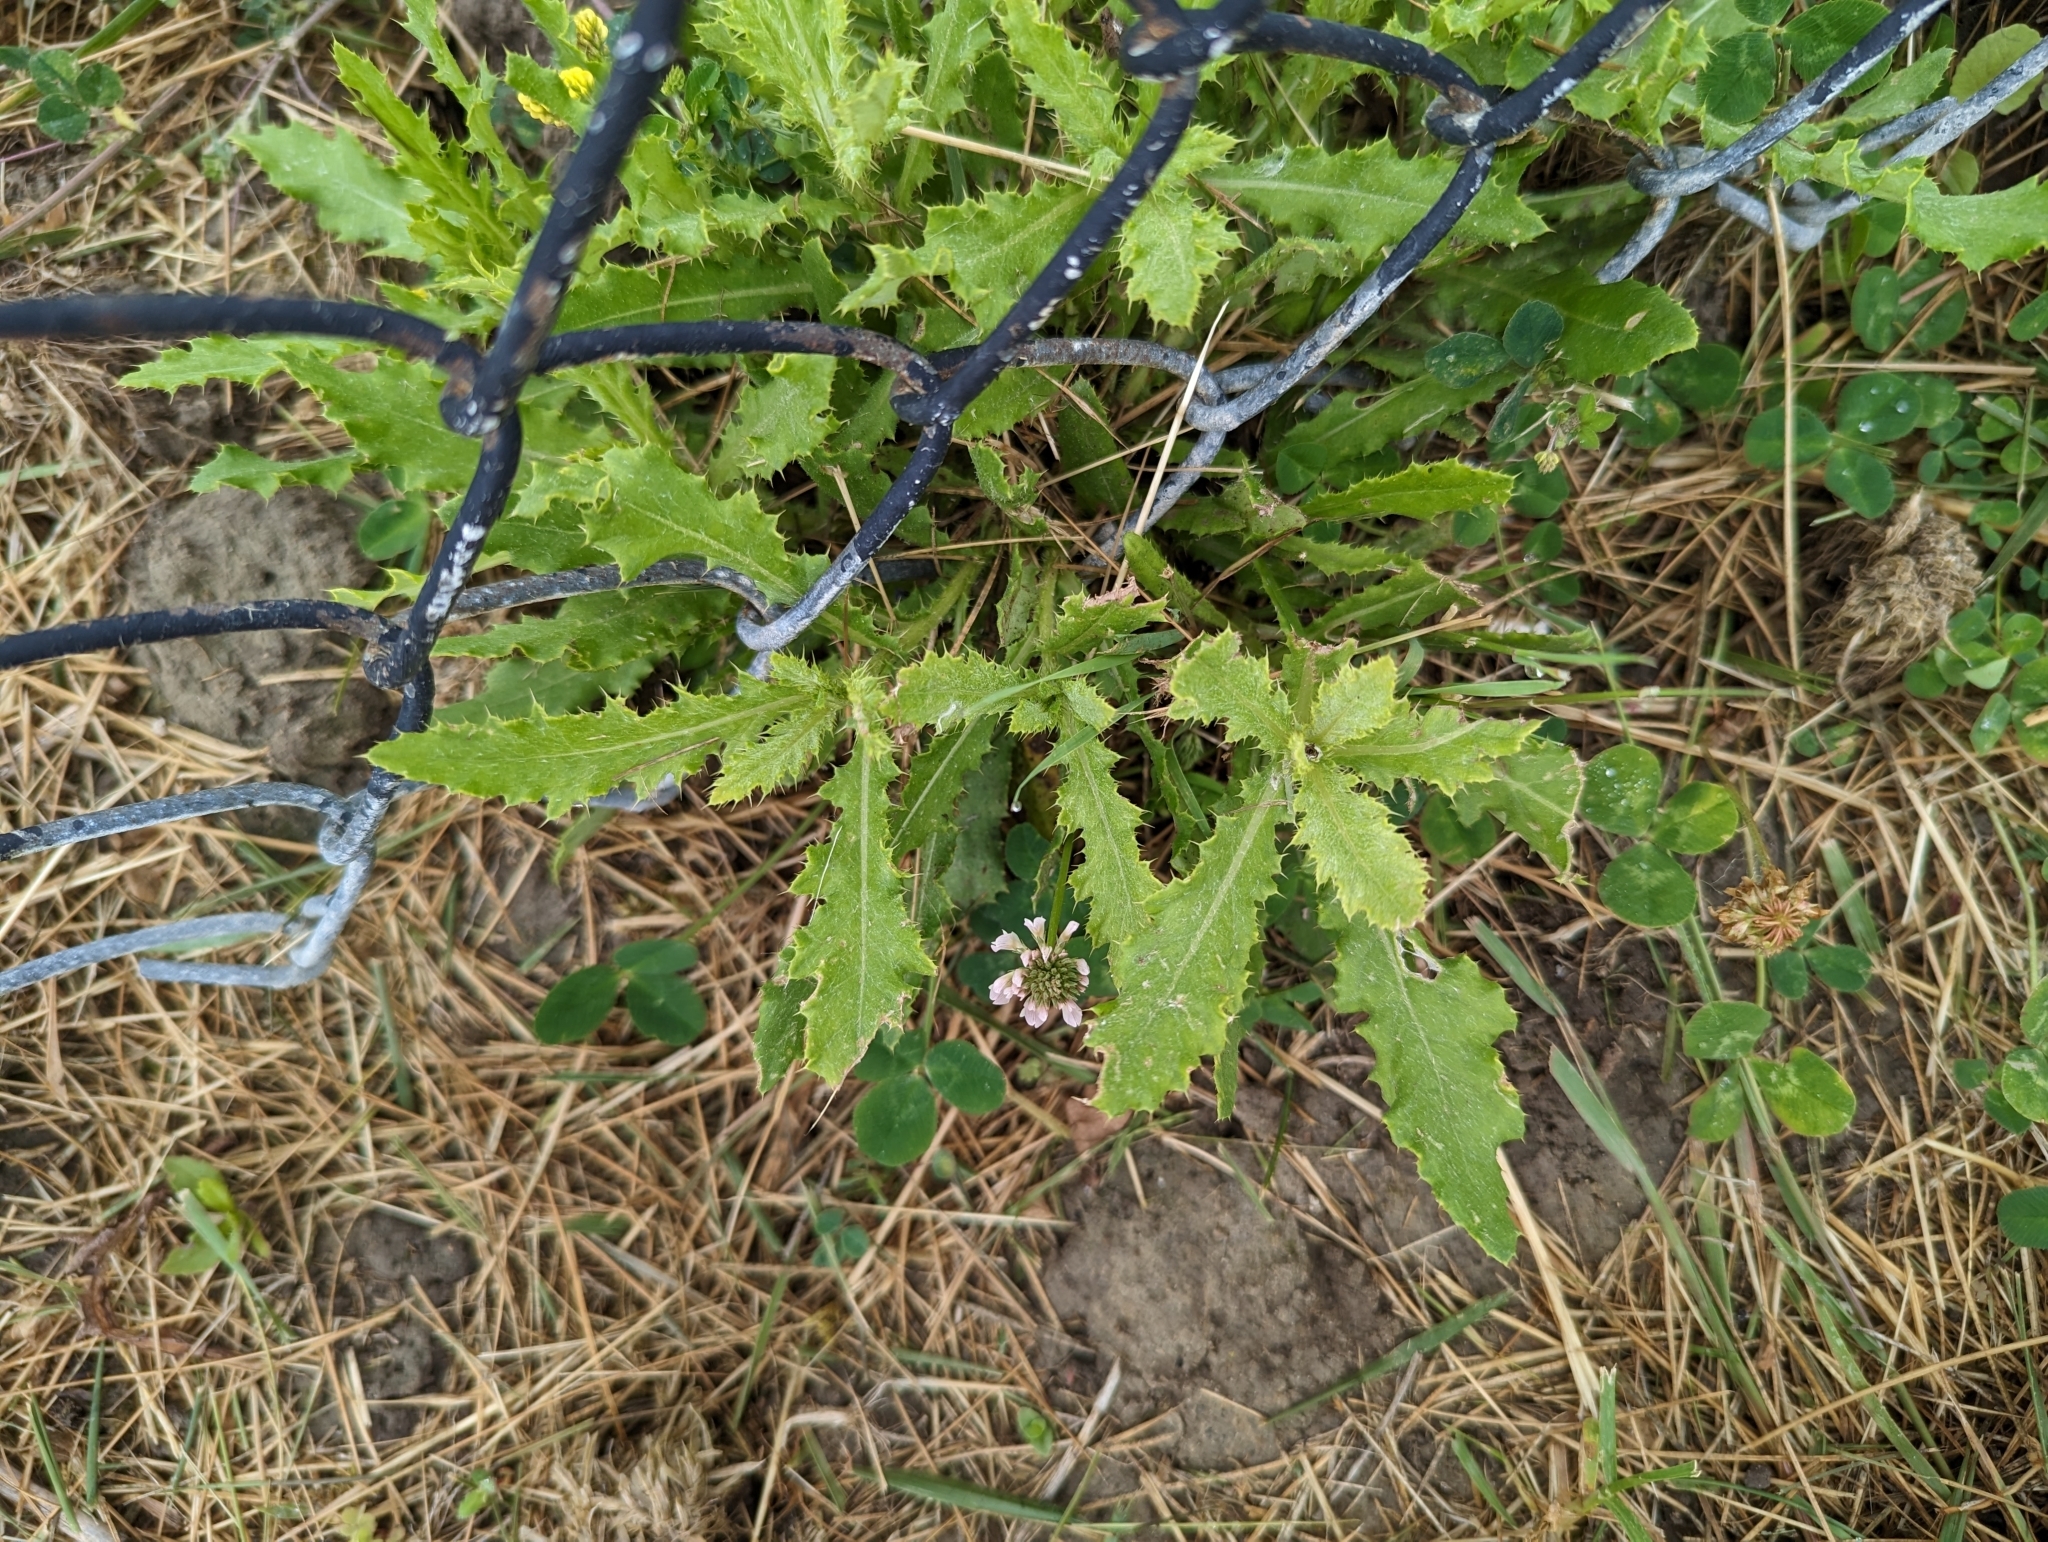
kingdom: Plantae
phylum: Tracheophyta
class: Magnoliopsida
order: Asterales
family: Asteraceae
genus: Cirsium
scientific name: Cirsium arvense
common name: Creeping thistle
